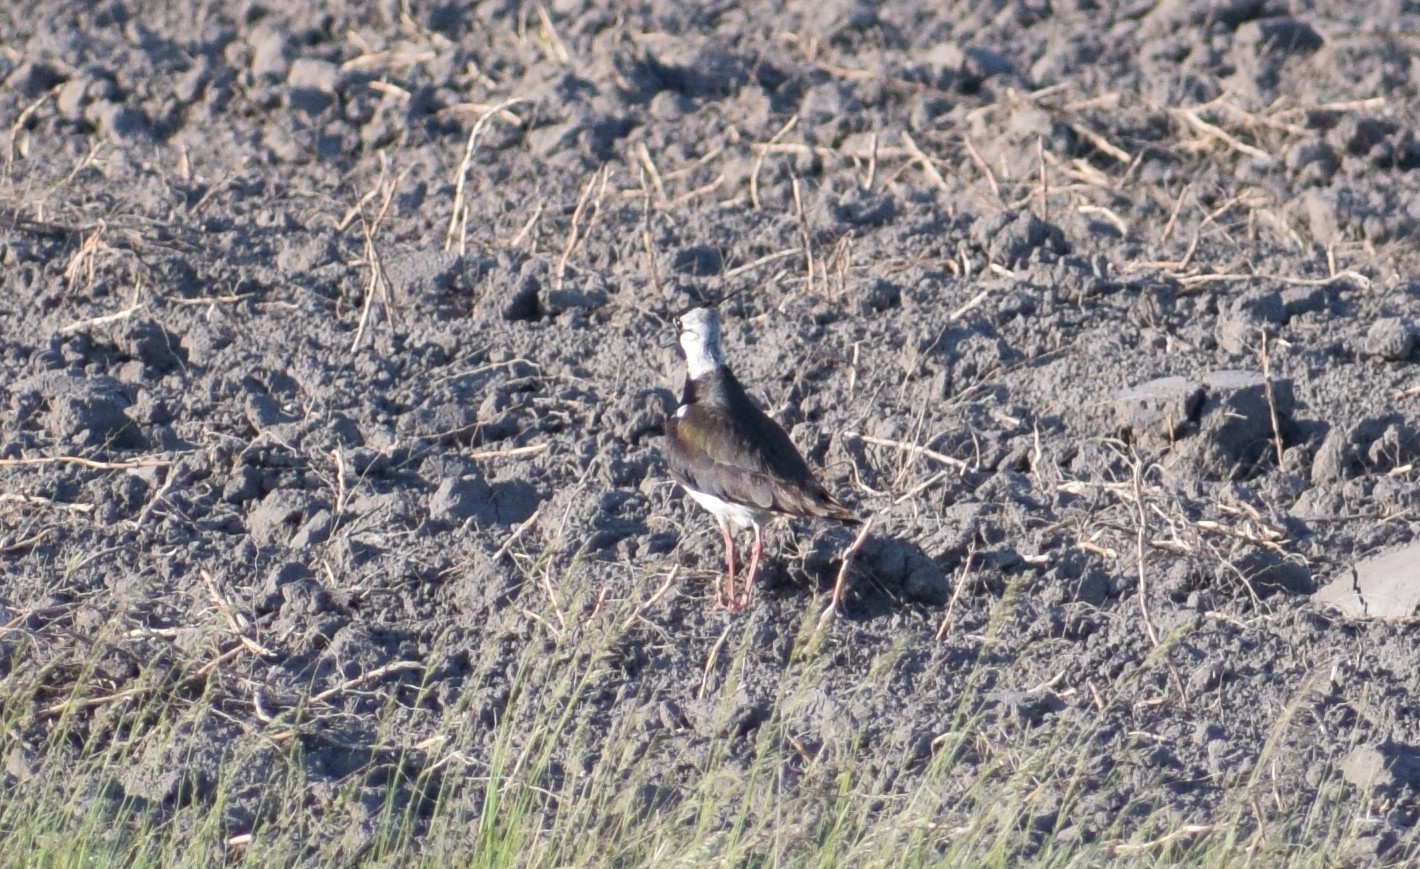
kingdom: Animalia
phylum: Chordata
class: Aves
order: Charadriiformes
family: Charadriidae
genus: Vanellus
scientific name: Vanellus vanellus
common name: Northern lapwing
